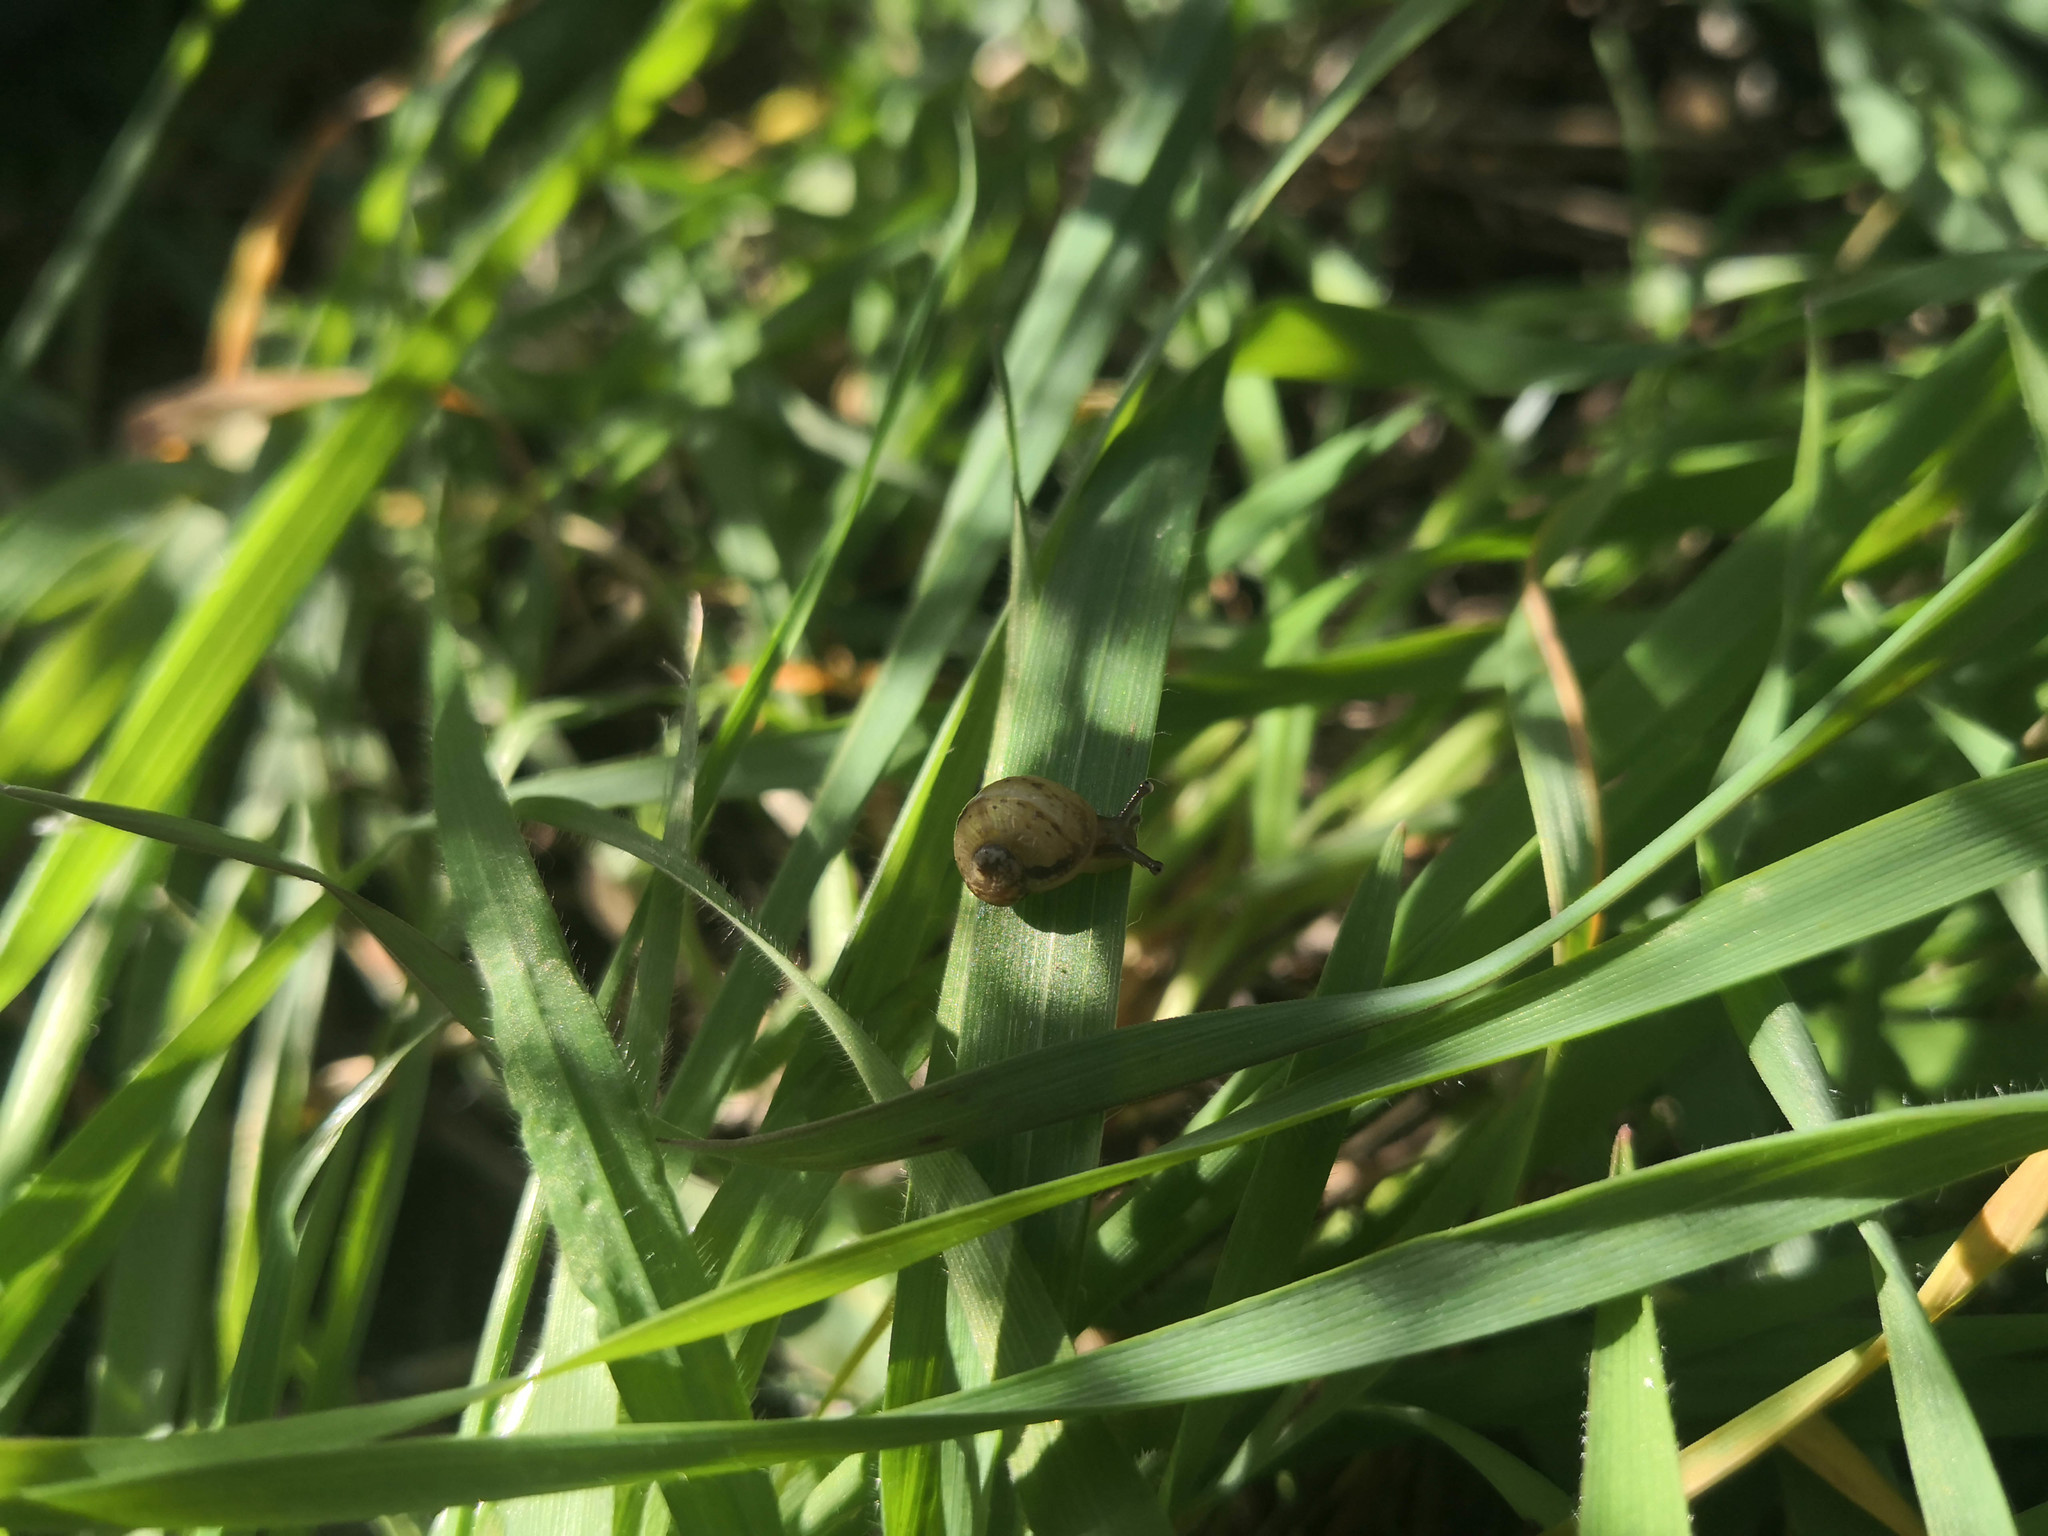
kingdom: Animalia
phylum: Mollusca
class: Gastropoda
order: Stylommatophora
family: Helicidae
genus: Cornu
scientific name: Cornu aspersum
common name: Brown garden snail
